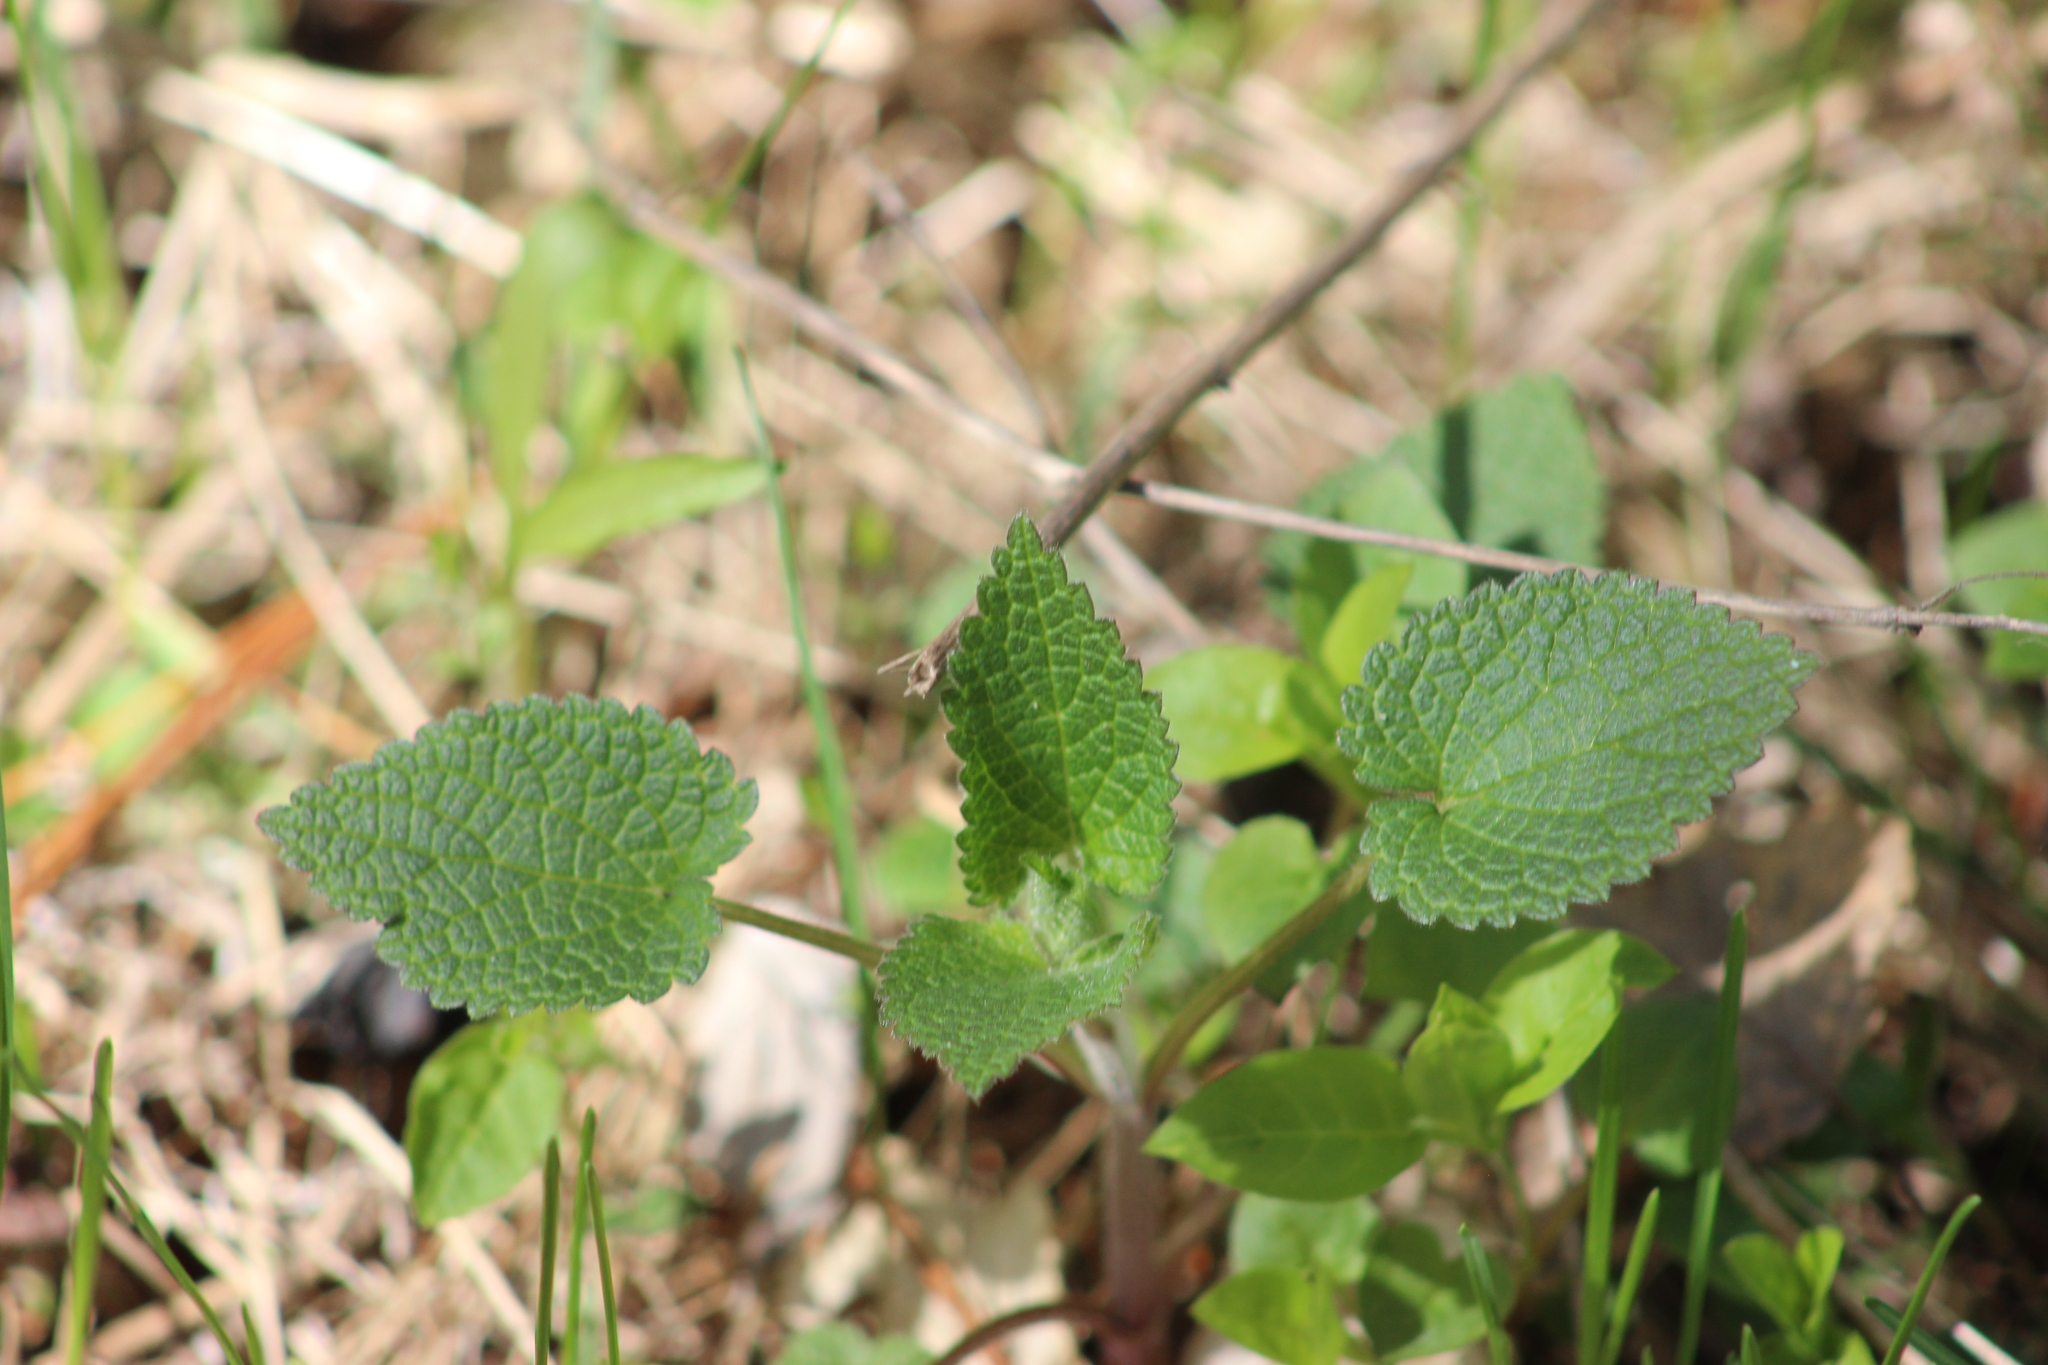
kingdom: Plantae
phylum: Tracheophyta
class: Magnoliopsida
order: Lamiales
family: Lamiaceae
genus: Lamium
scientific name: Lamium album
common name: White dead-nettle
